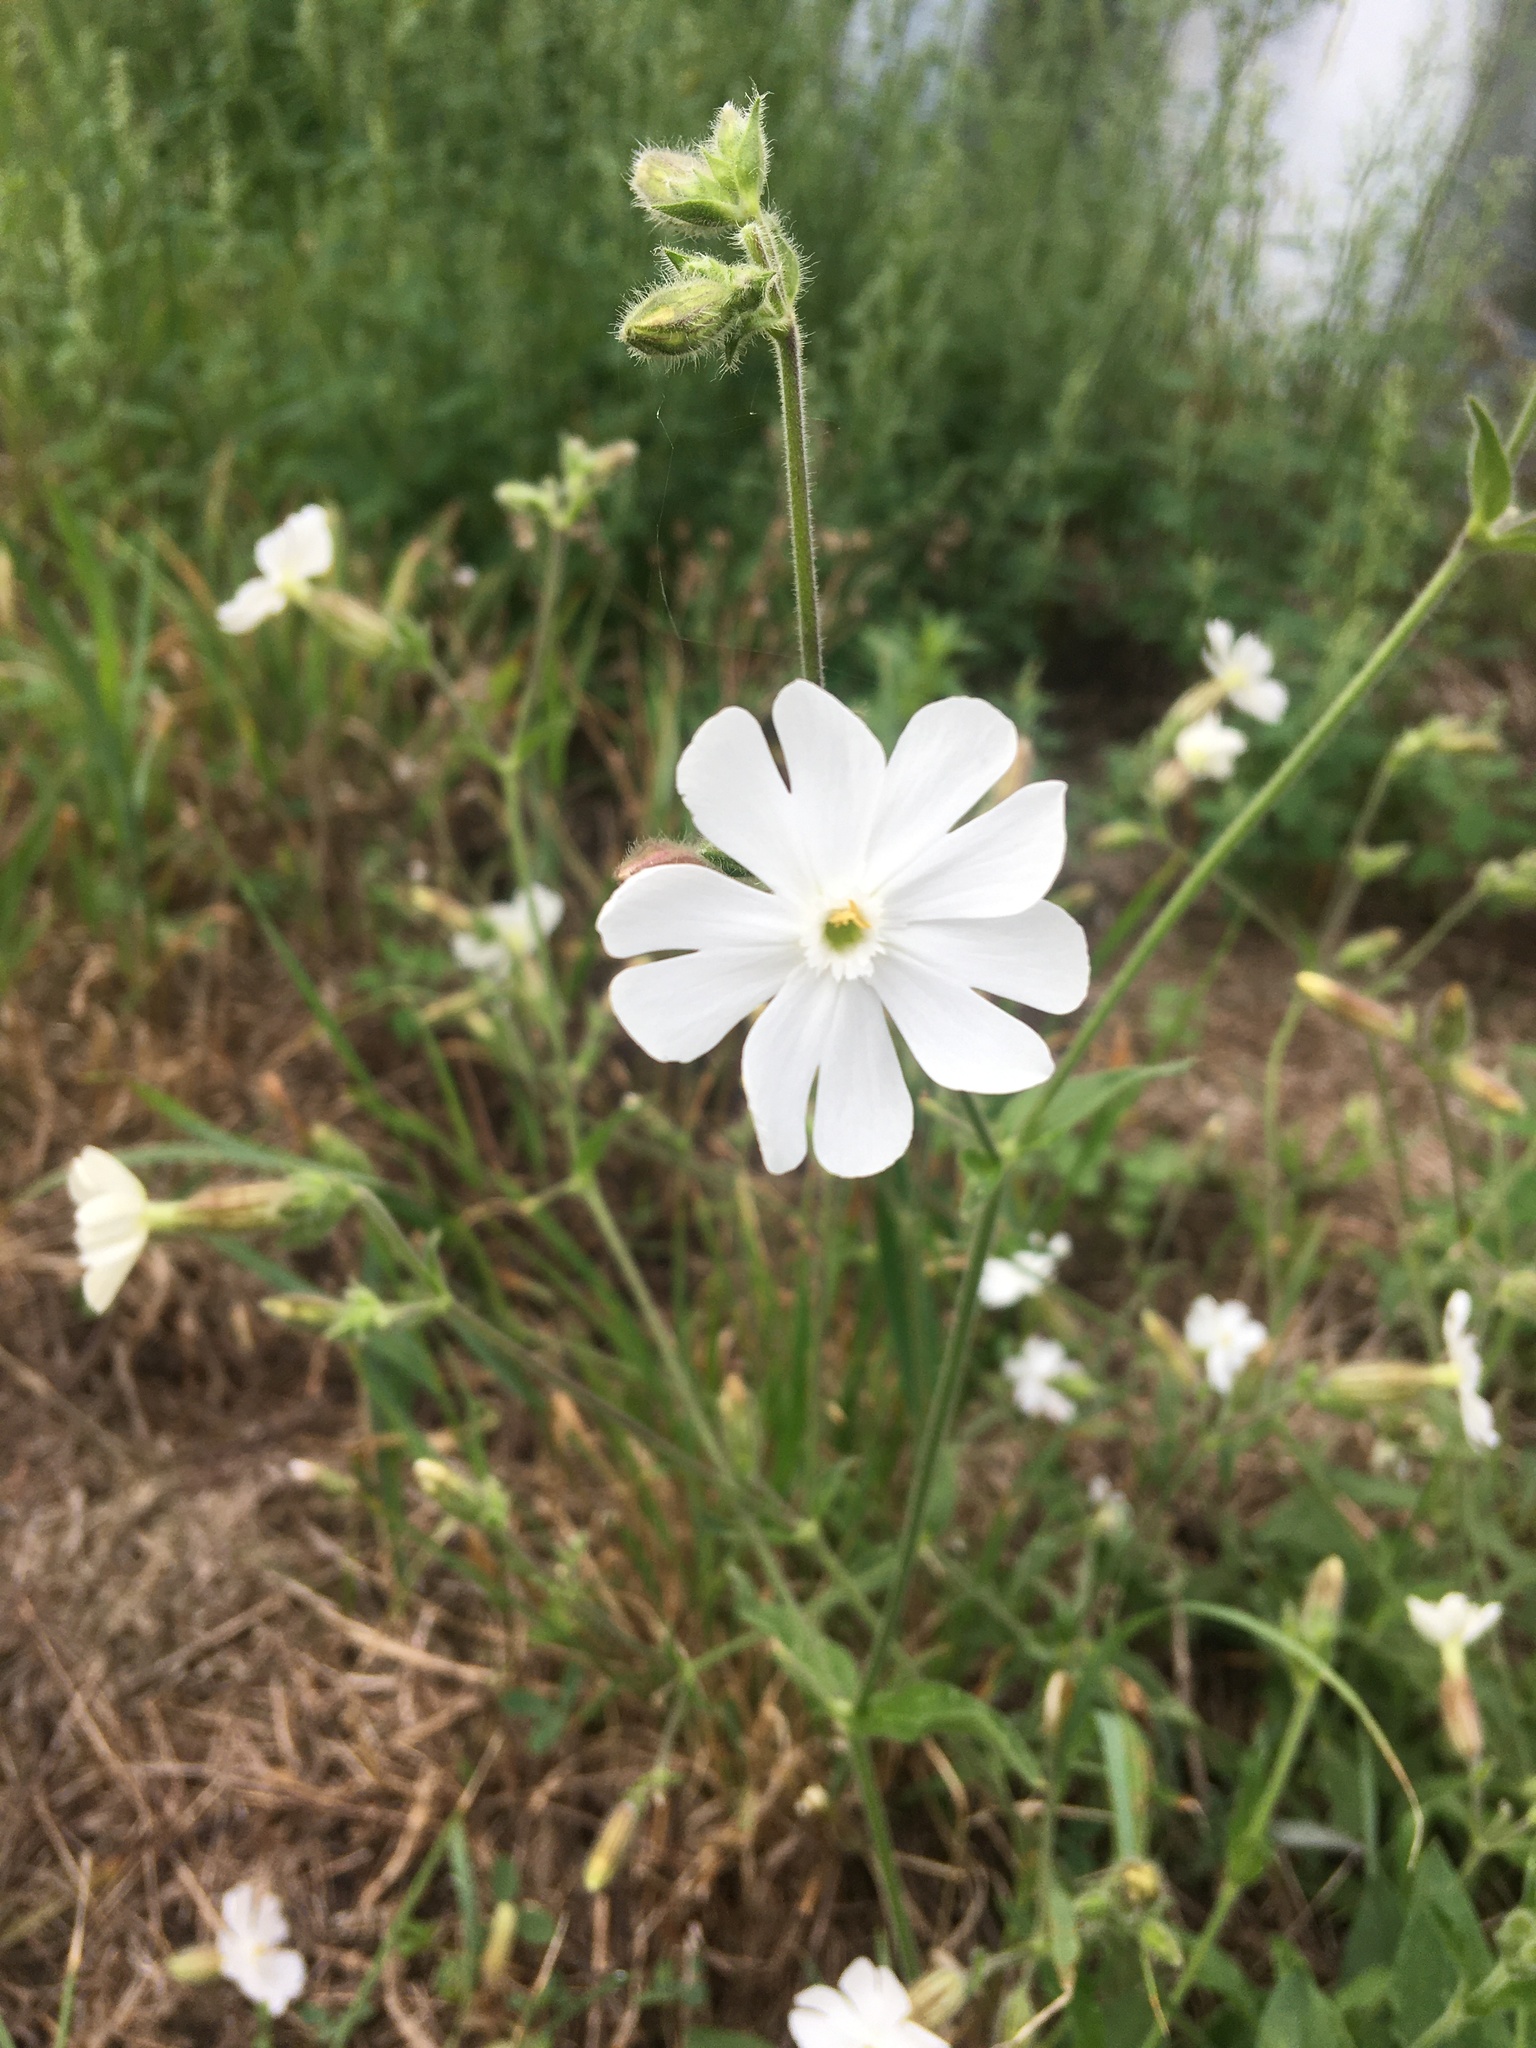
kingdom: Plantae
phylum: Tracheophyta
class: Magnoliopsida
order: Caryophyllales
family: Caryophyllaceae
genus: Silene
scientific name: Silene latifolia
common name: White campion
